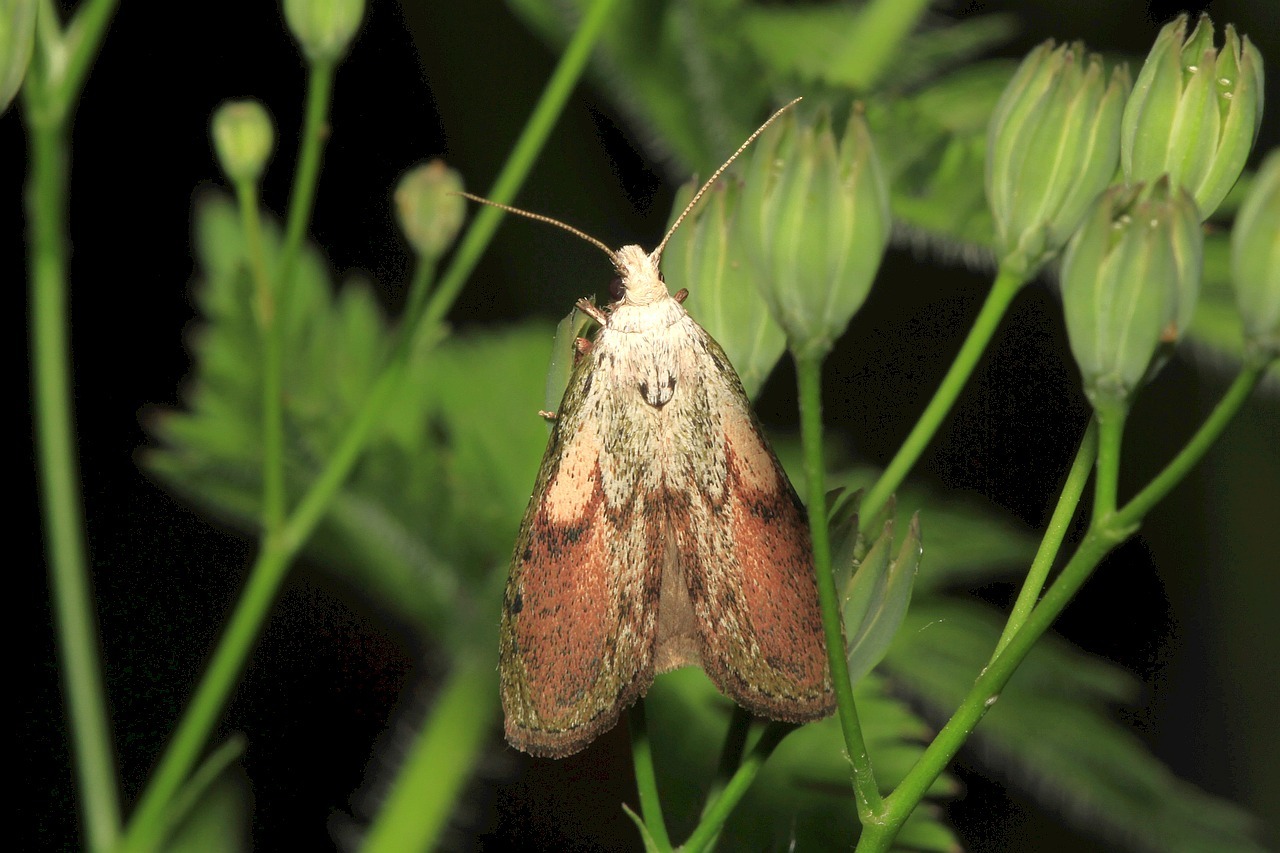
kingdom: Animalia
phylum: Arthropoda
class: Insecta
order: Lepidoptera
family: Pyralidae
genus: Aphomia
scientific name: Aphomia sociella
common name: Bee moth
